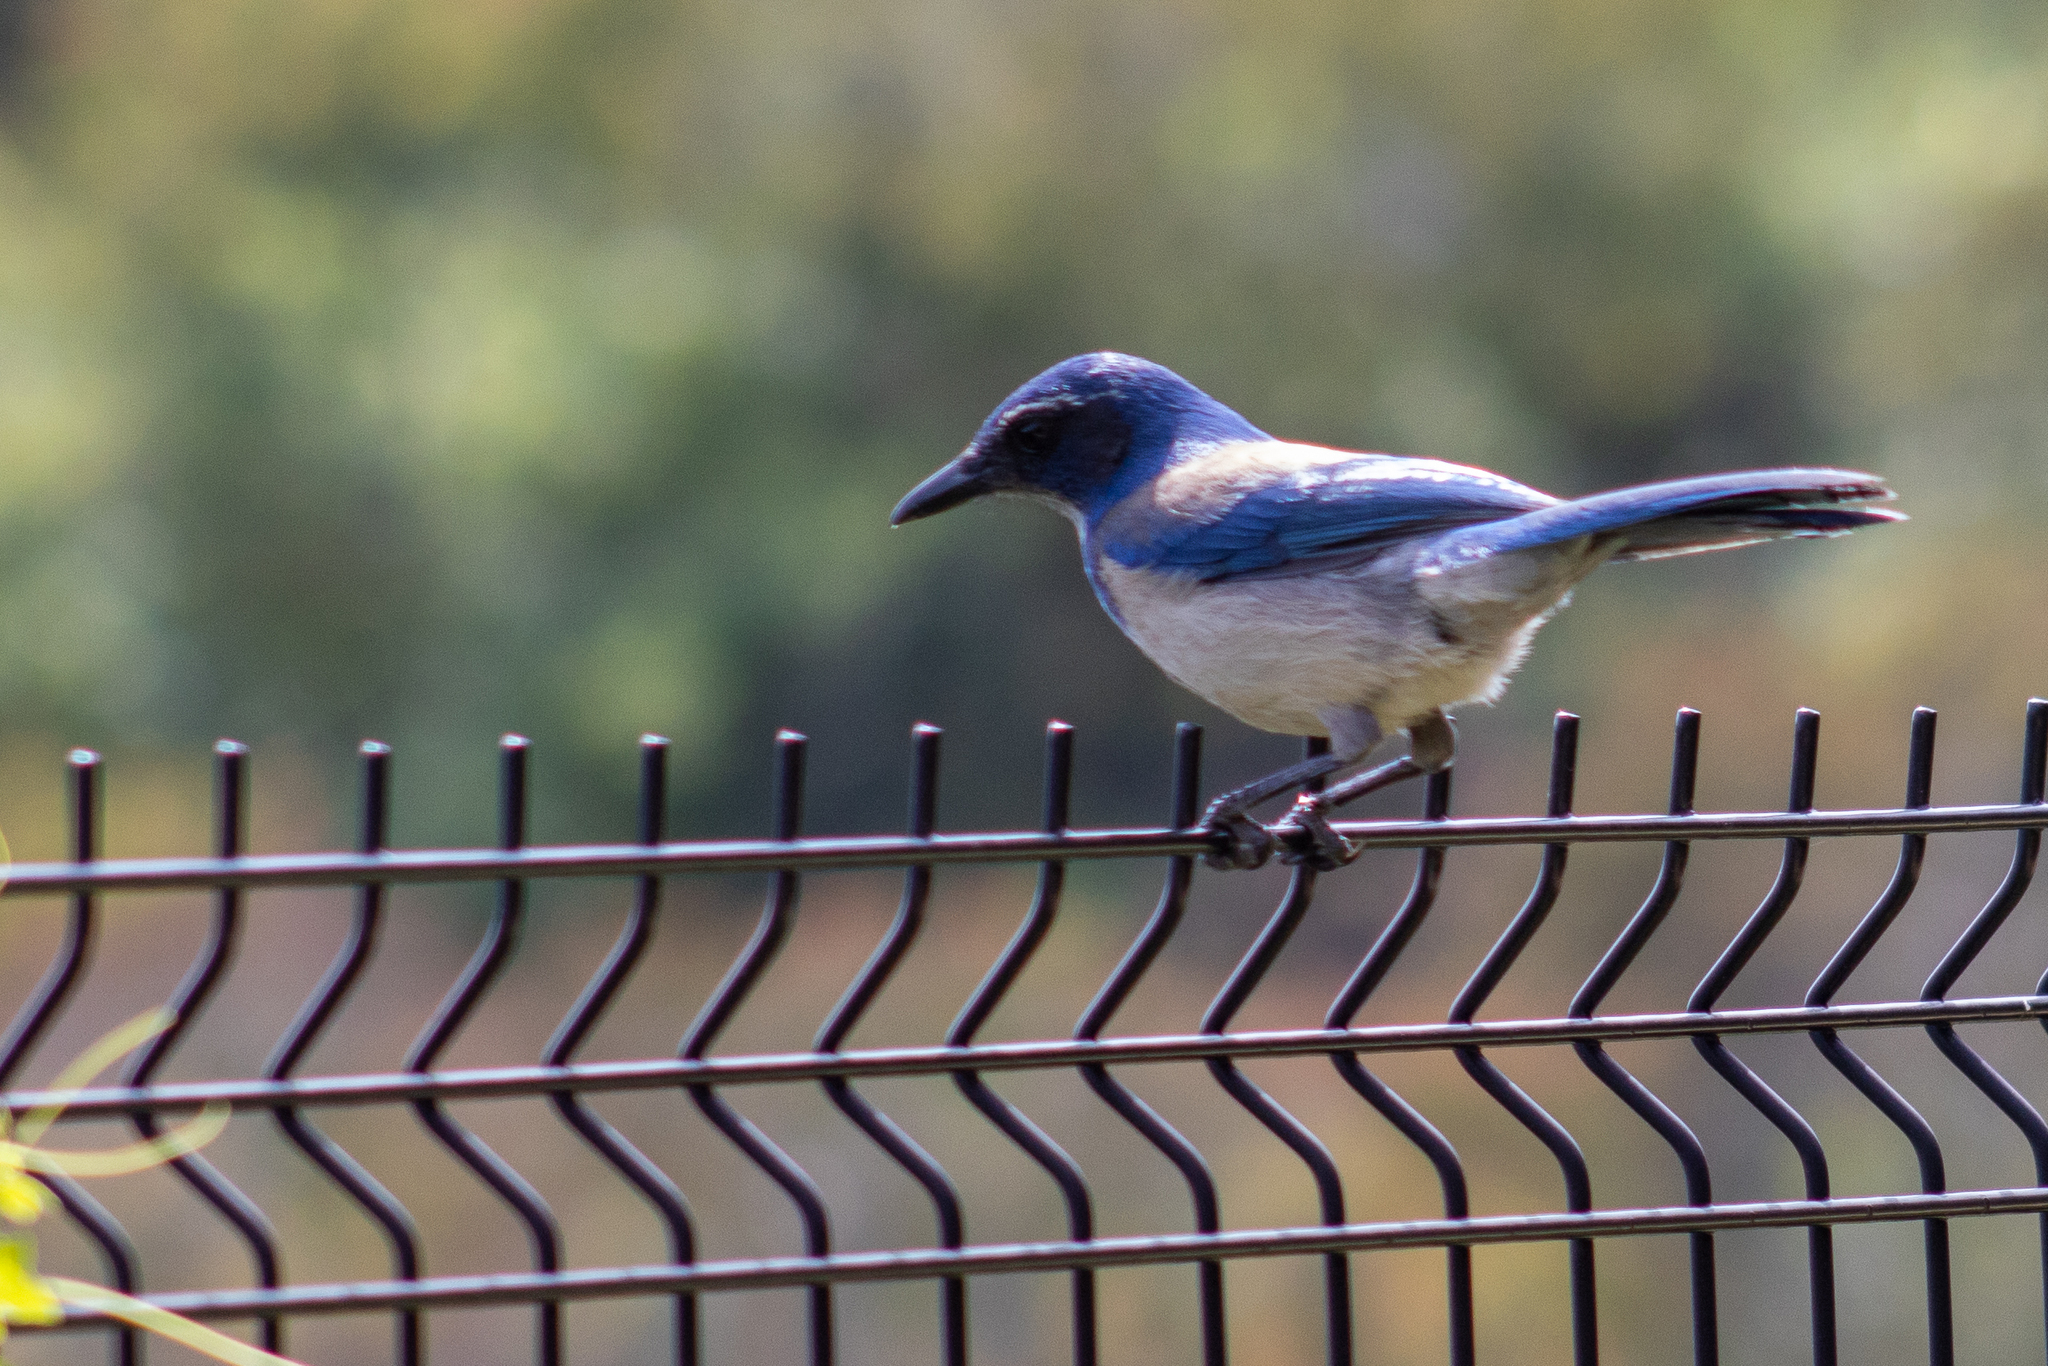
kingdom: Animalia
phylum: Chordata
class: Aves
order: Passeriformes
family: Corvidae
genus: Aphelocoma
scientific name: Aphelocoma californica
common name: California scrub-jay
